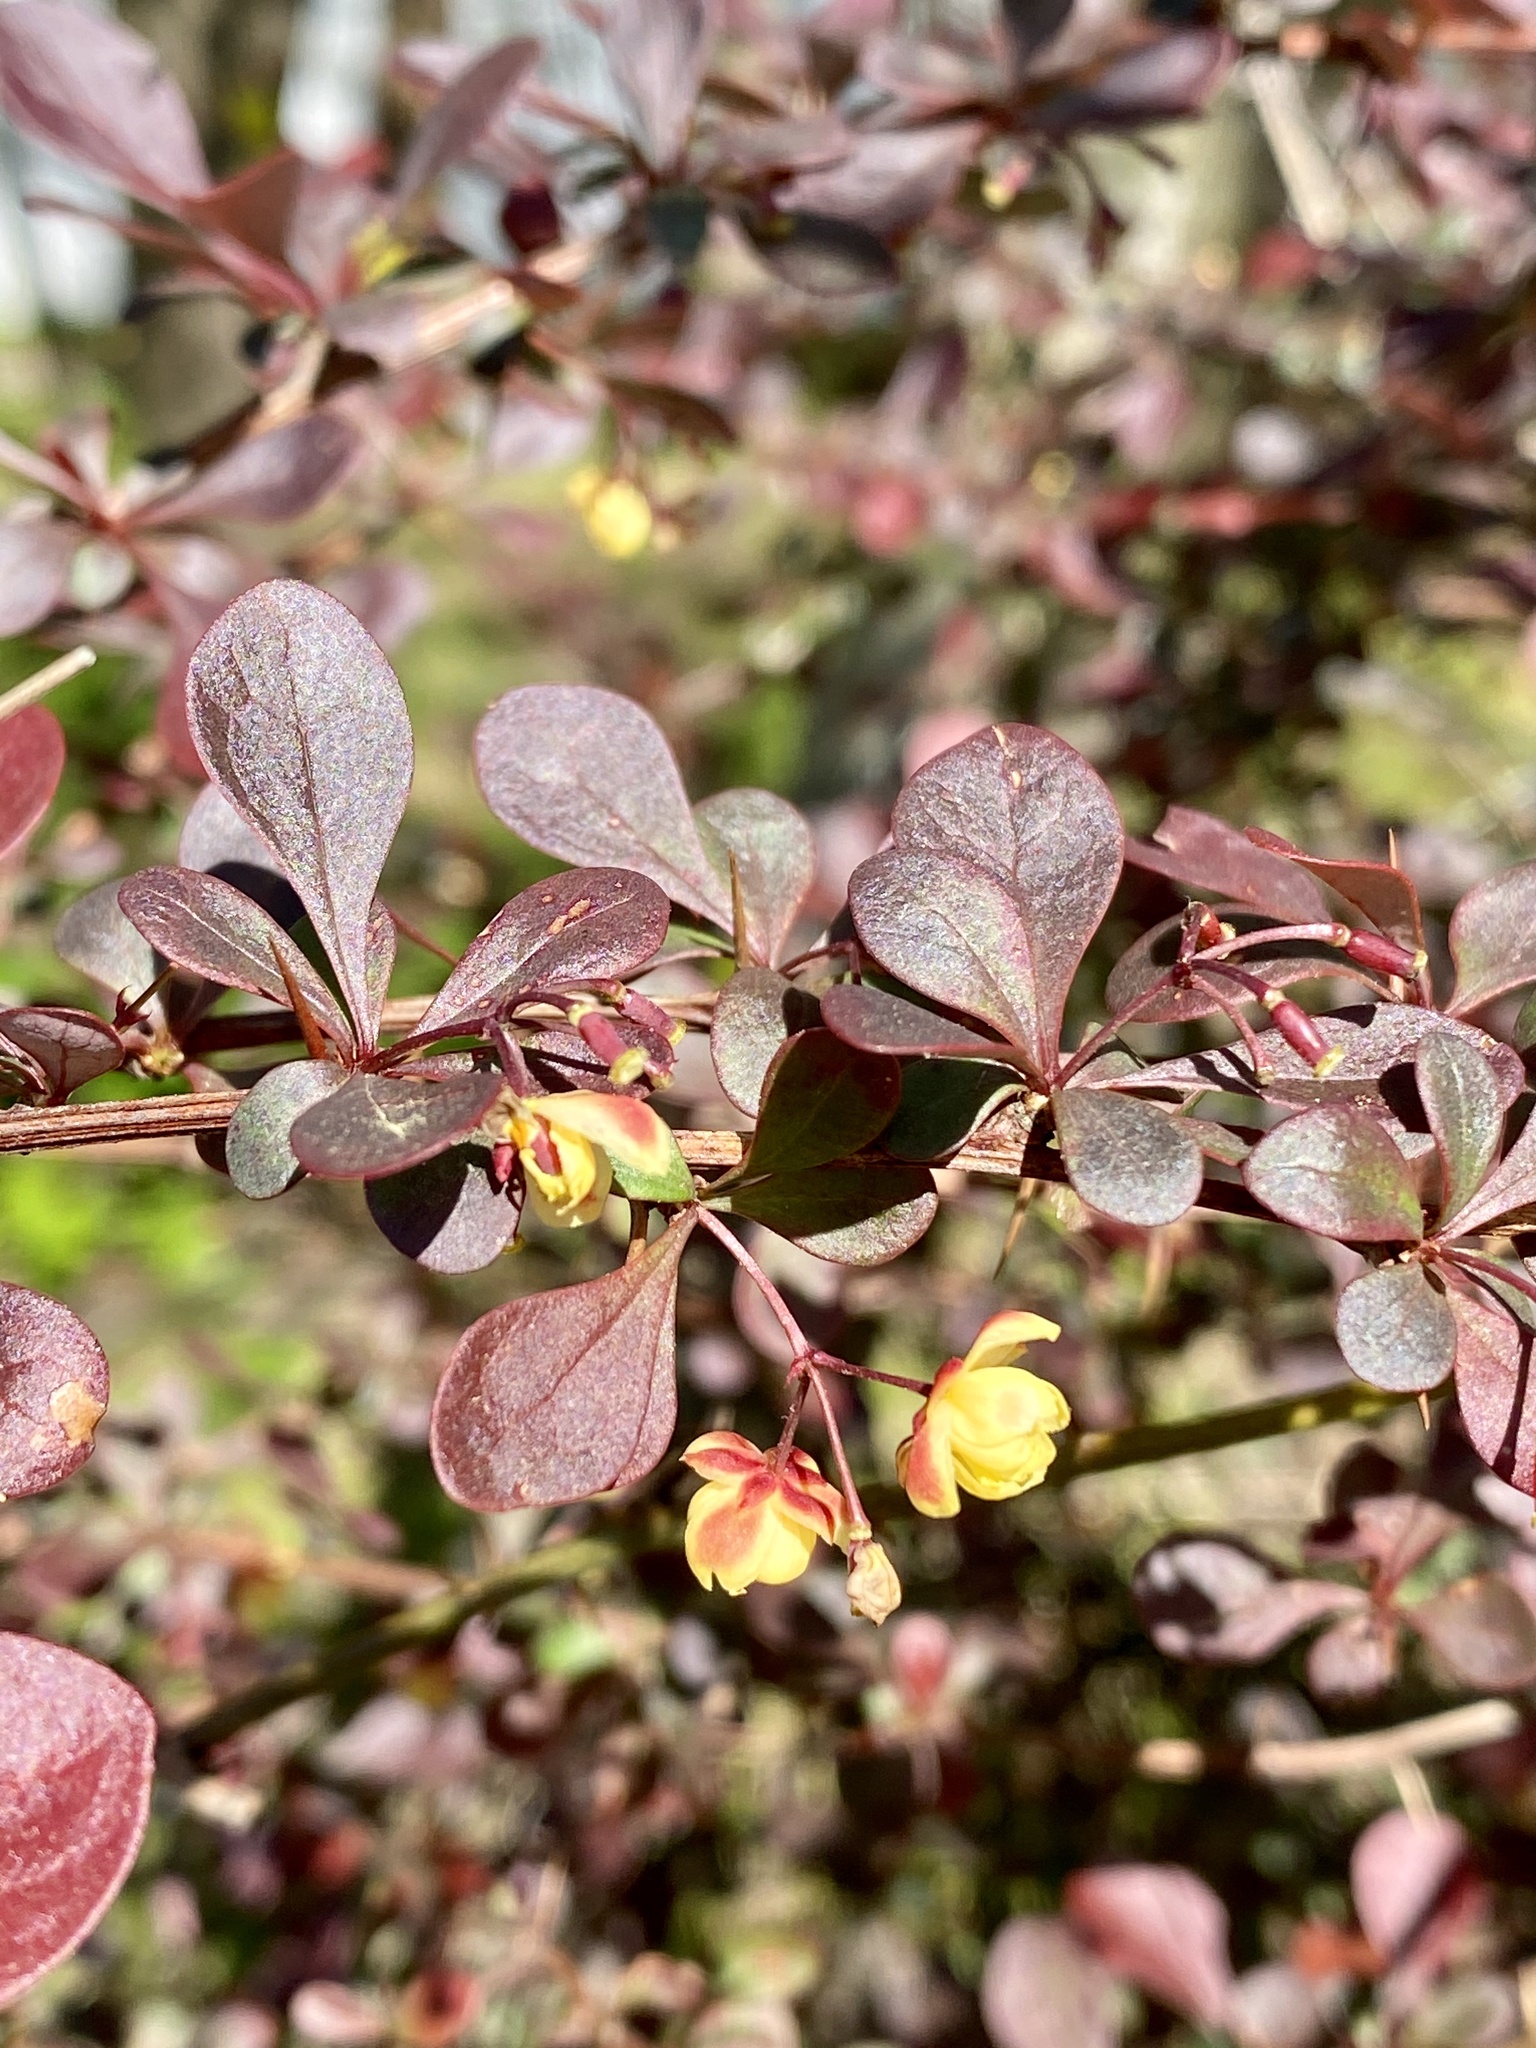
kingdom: Plantae
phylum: Tracheophyta
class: Magnoliopsida
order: Ranunculales
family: Berberidaceae
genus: Berberis
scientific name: Berberis thunbergii
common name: Japanese barberry
